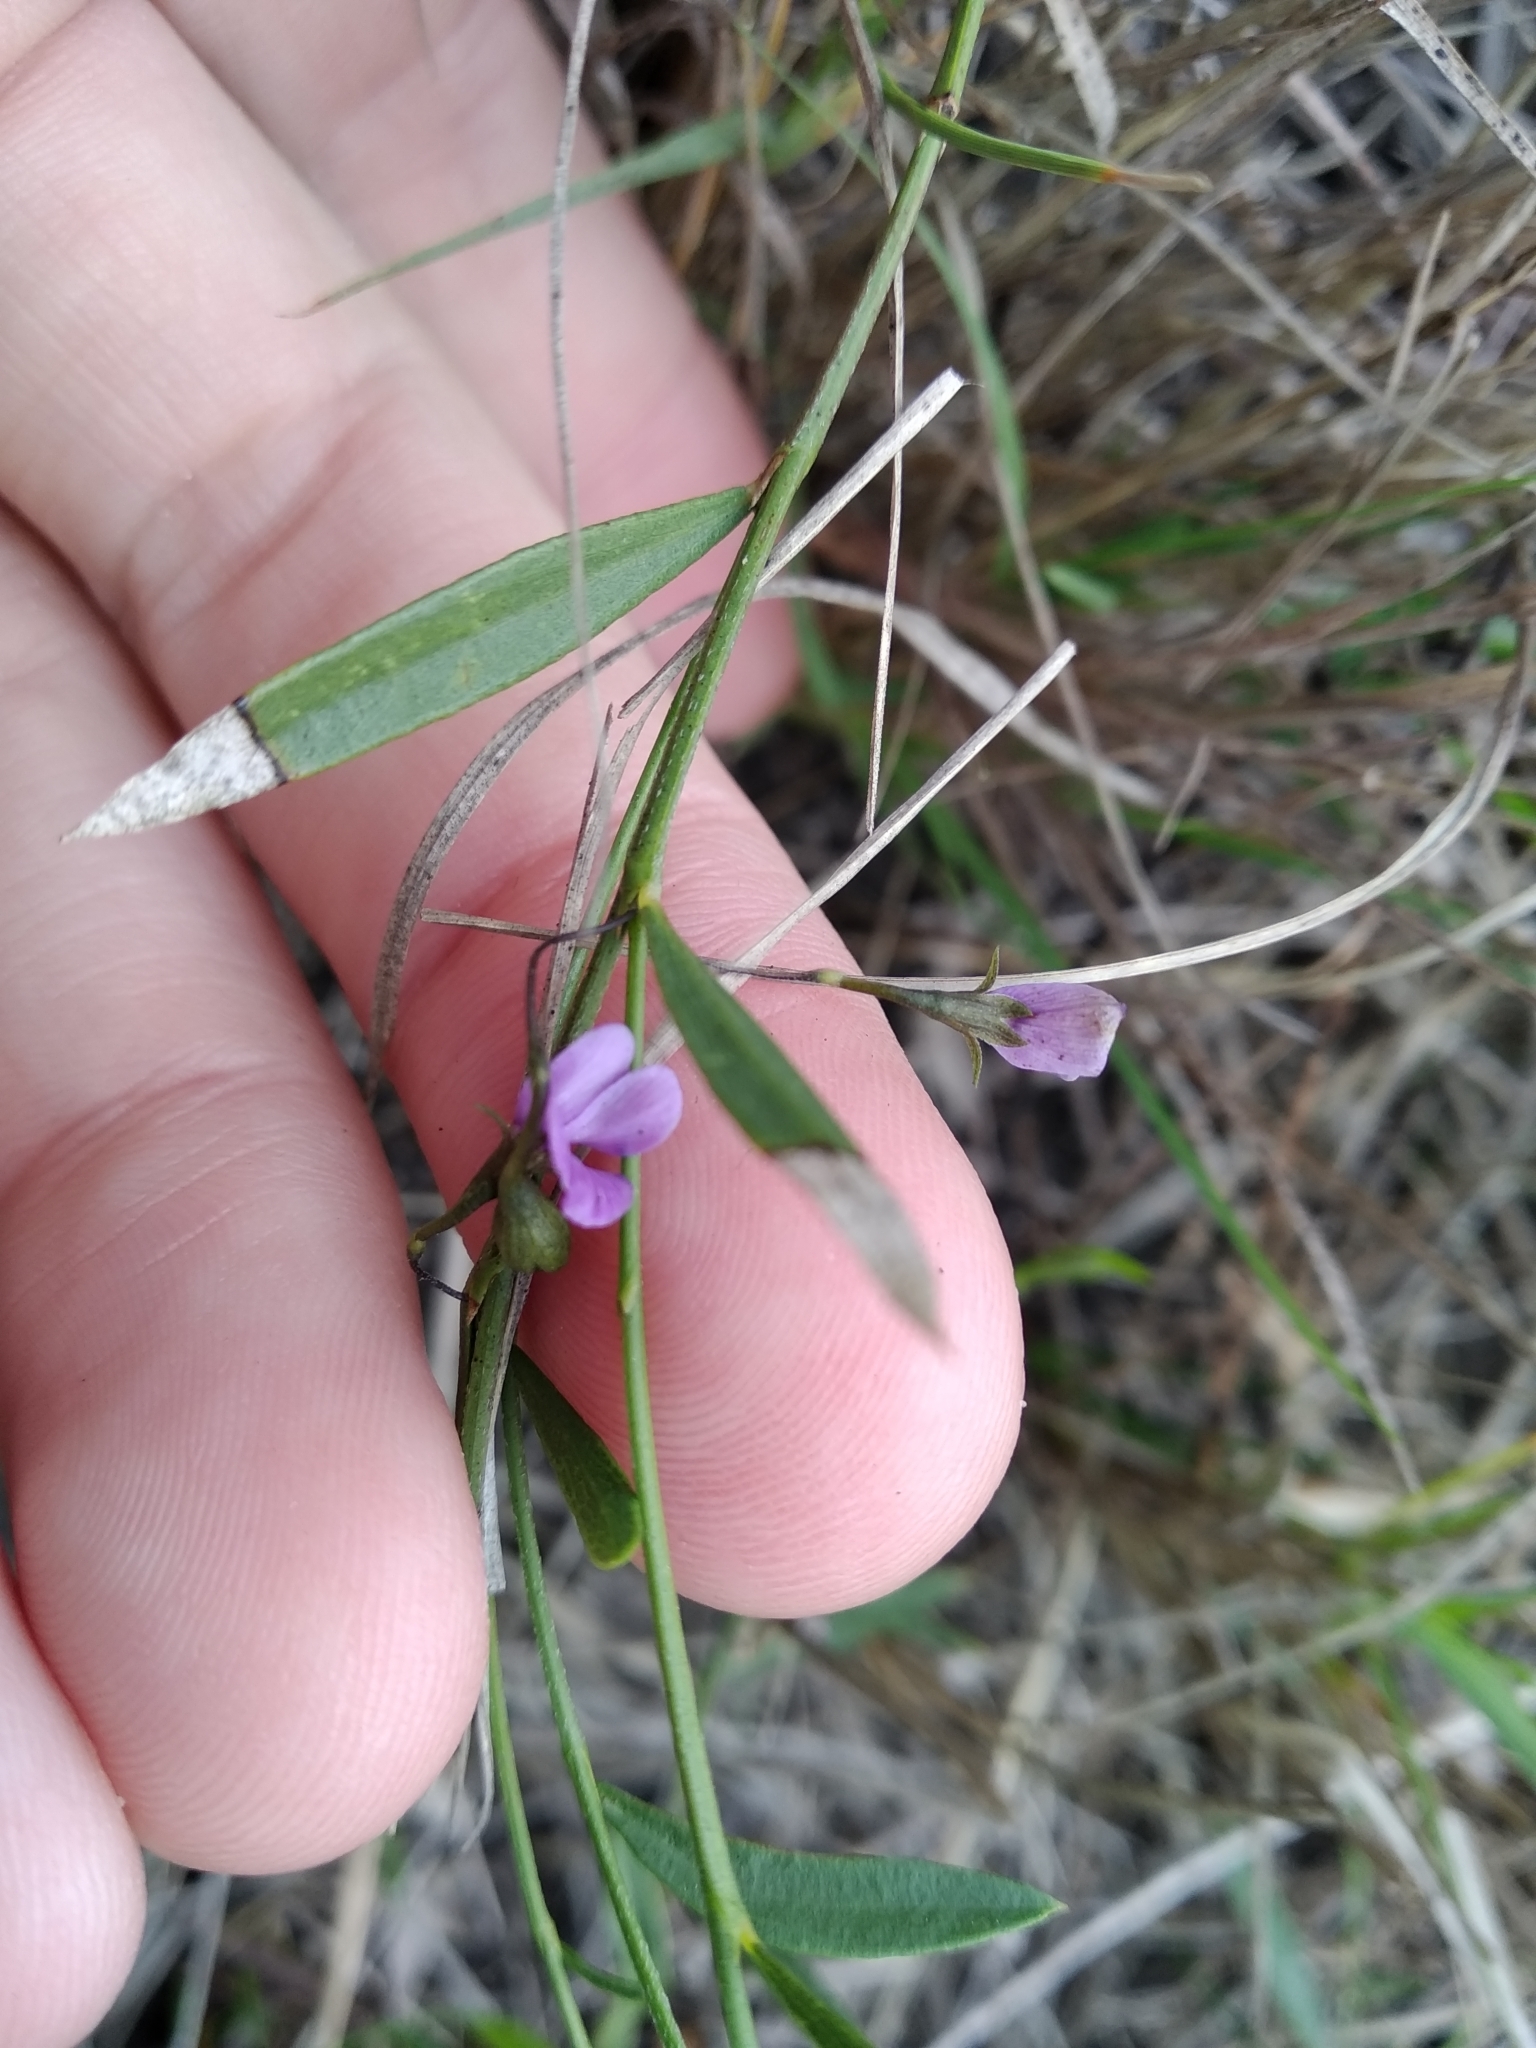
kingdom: Plantae
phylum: Tracheophyta
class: Magnoliopsida
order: Fabales
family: Fabaceae
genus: Psoralea
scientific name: Psoralea laxa
